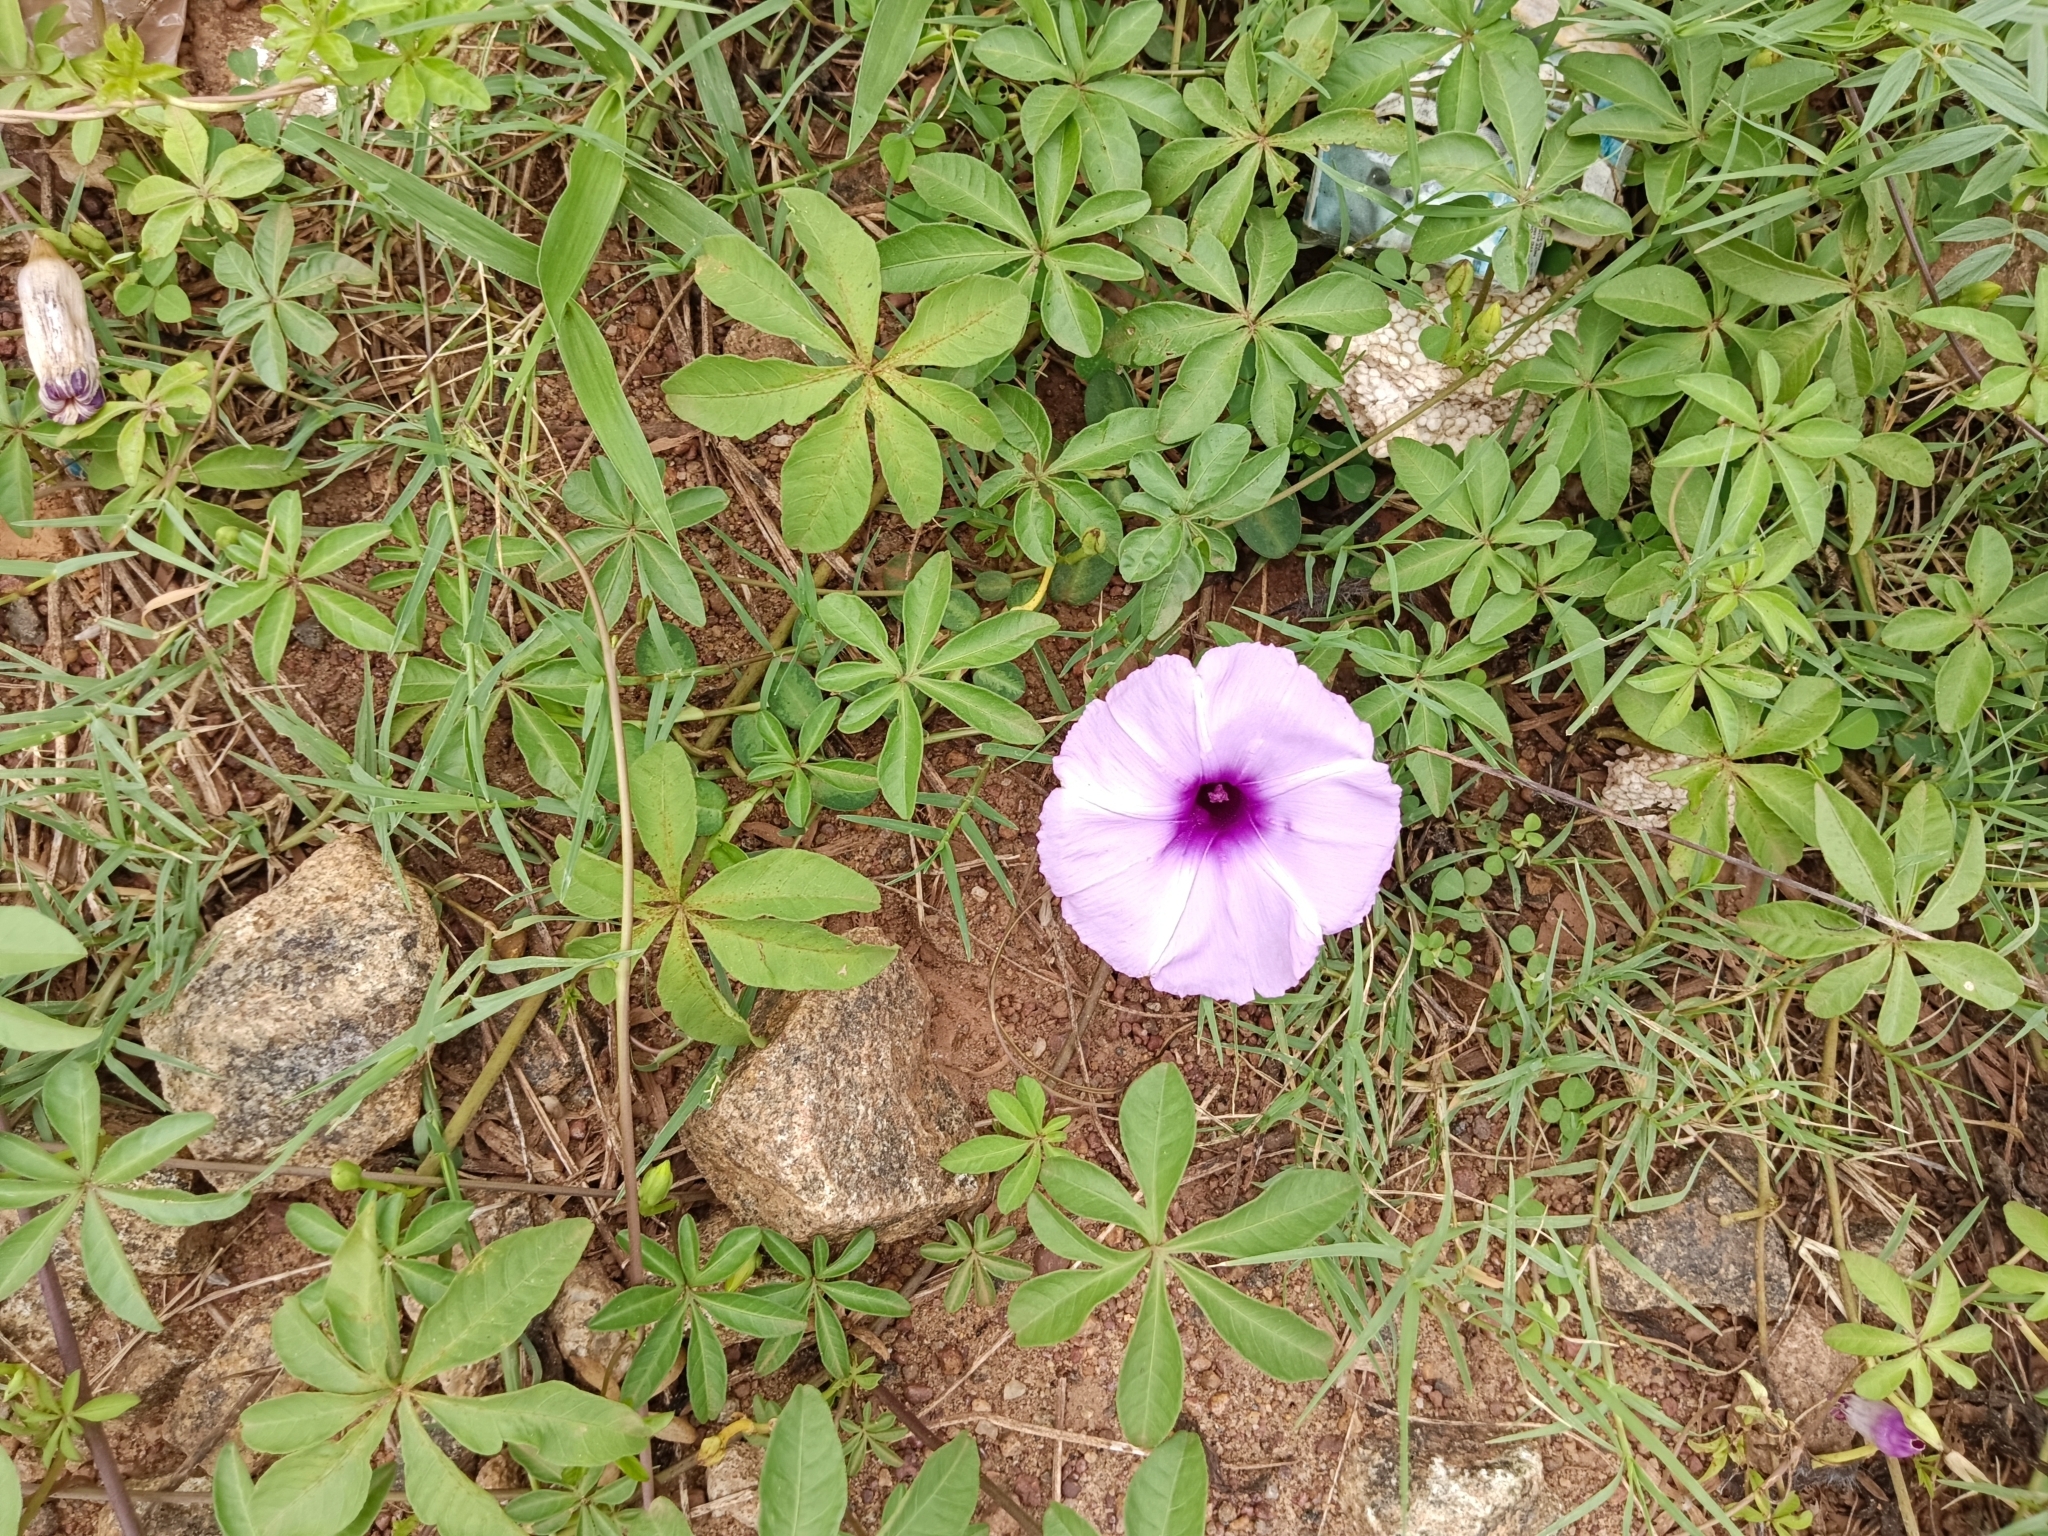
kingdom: Plantae
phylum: Tracheophyta
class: Magnoliopsida
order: Solanales
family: Convolvulaceae
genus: Ipomoea
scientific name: Ipomoea cairica
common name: Mile a minute vine
